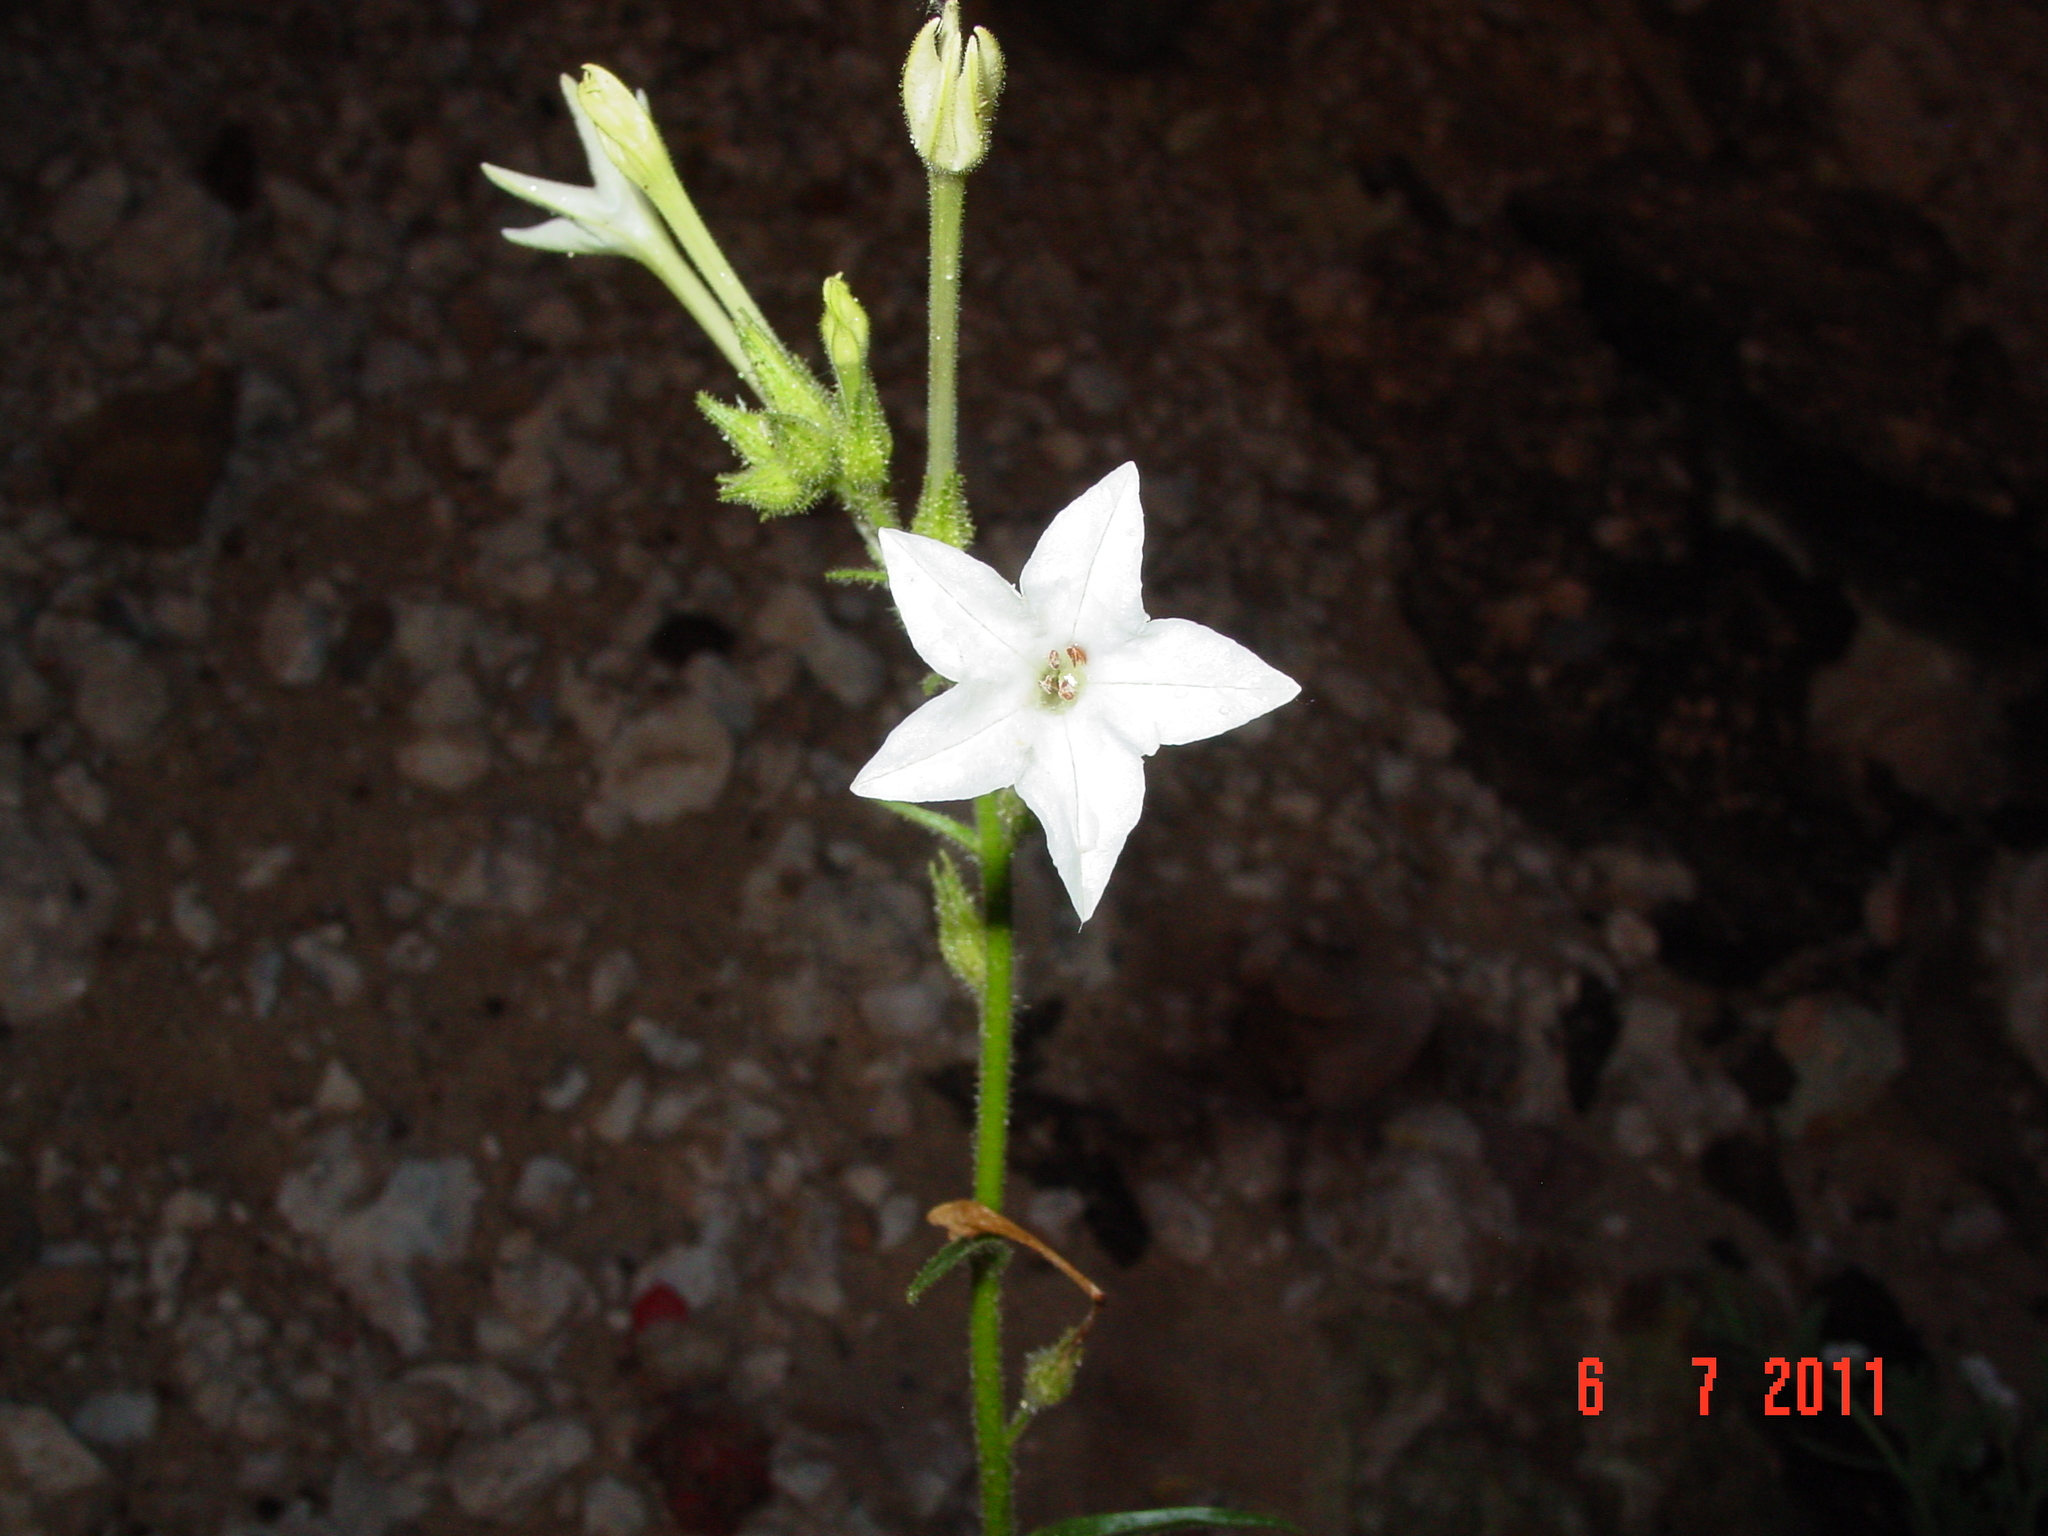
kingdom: Plantae
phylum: Tracheophyta
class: Magnoliopsida
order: Solanales
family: Solanaceae
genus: Nicotiana
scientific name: Nicotiana quadrivalvis
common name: Indian tobacco
